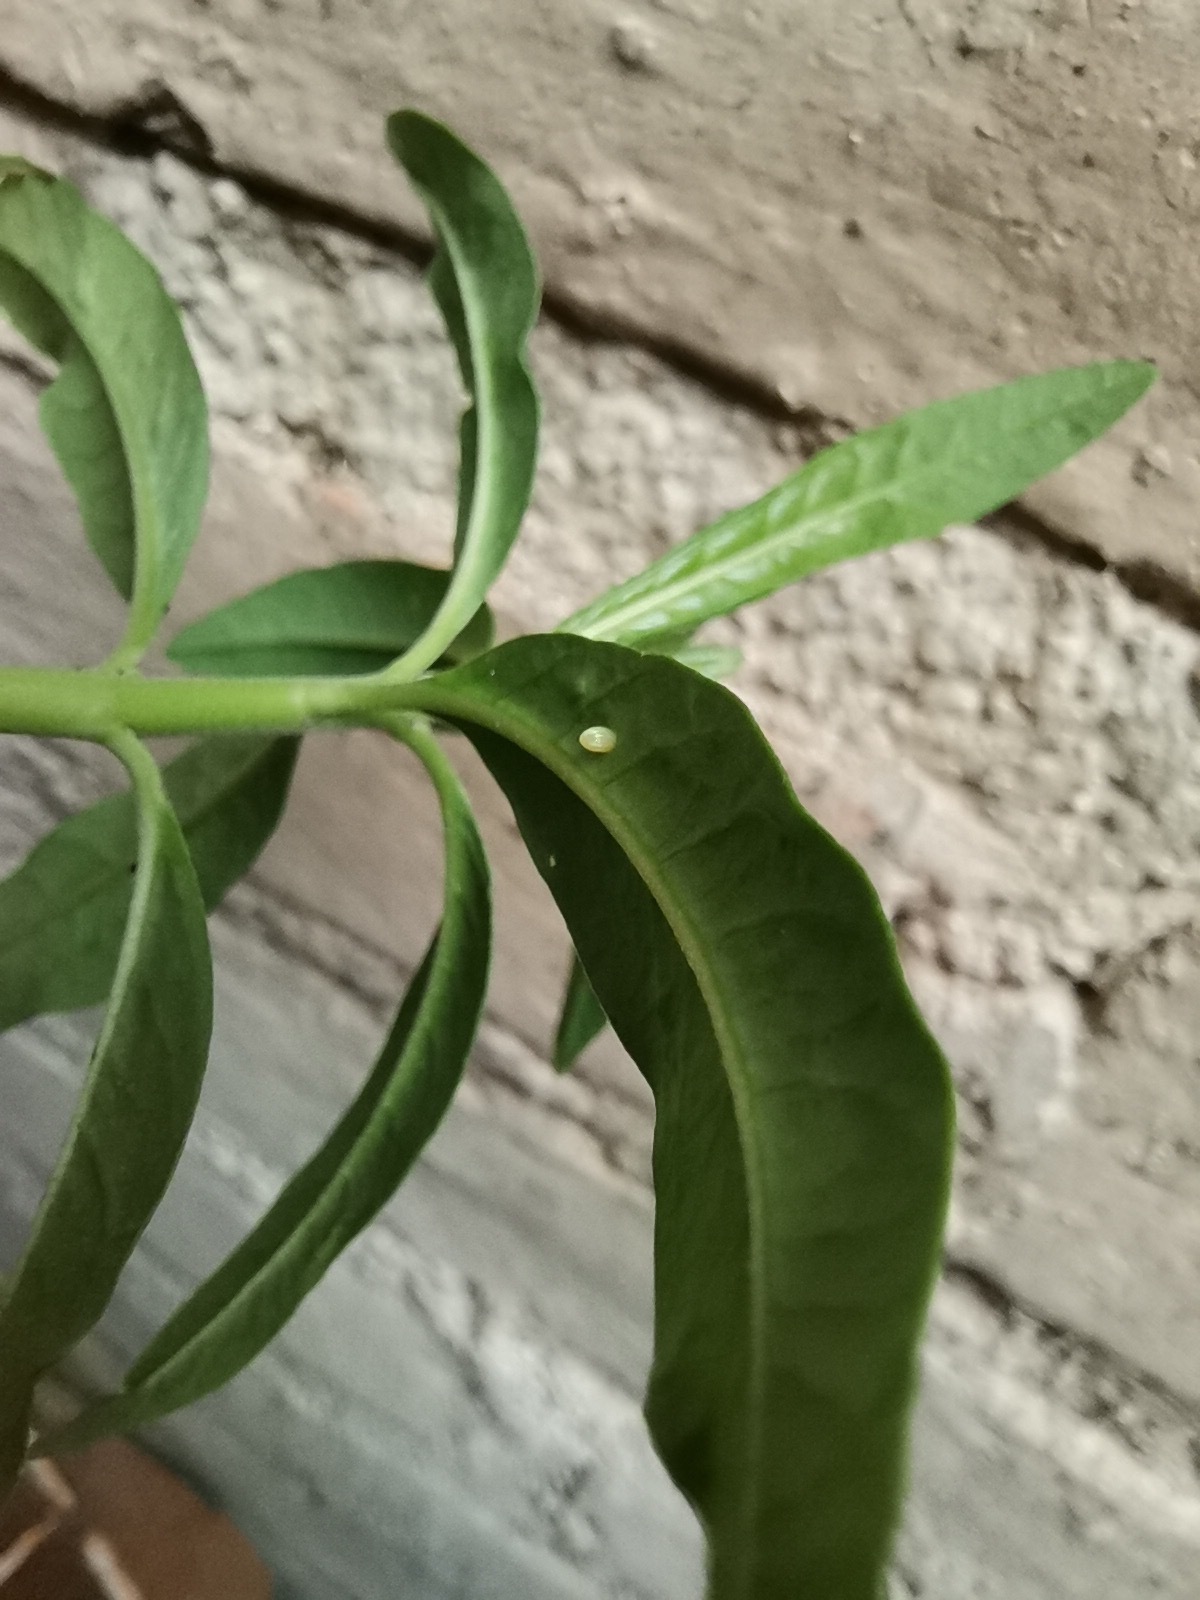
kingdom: Animalia
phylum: Arthropoda
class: Insecta
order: Lepidoptera
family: Nymphalidae
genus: Danaus
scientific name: Danaus plexippus
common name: Monarch
